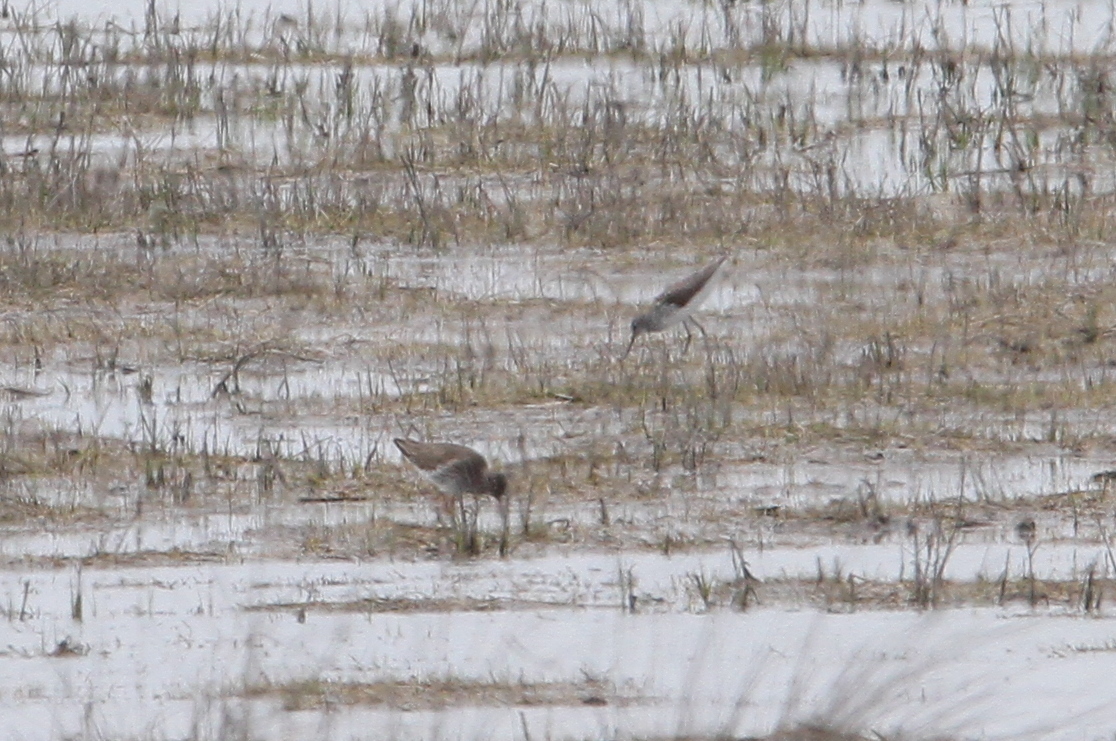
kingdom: Animalia
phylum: Chordata
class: Aves
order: Charadriiformes
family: Scolopacidae
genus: Tringa
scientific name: Tringa stagnatilis
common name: Marsh sandpiper
